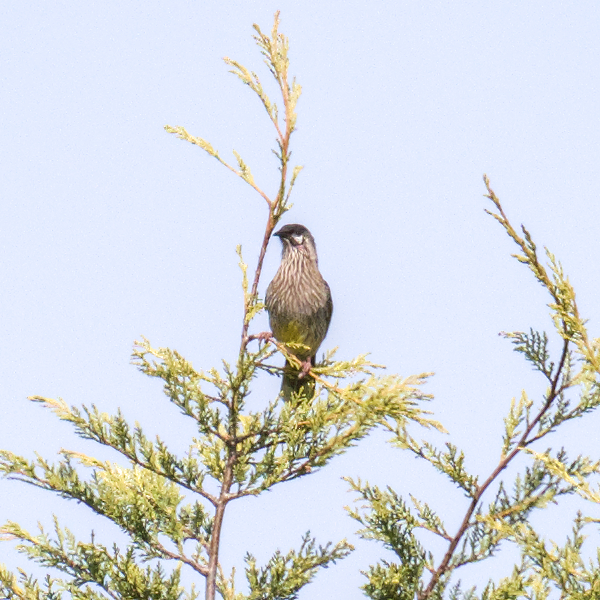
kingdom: Animalia
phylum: Chordata
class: Aves
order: Passeriformes
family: Meliphagidae
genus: Anthochaera
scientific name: Anthochaera carunculata
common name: Red wattlebird
